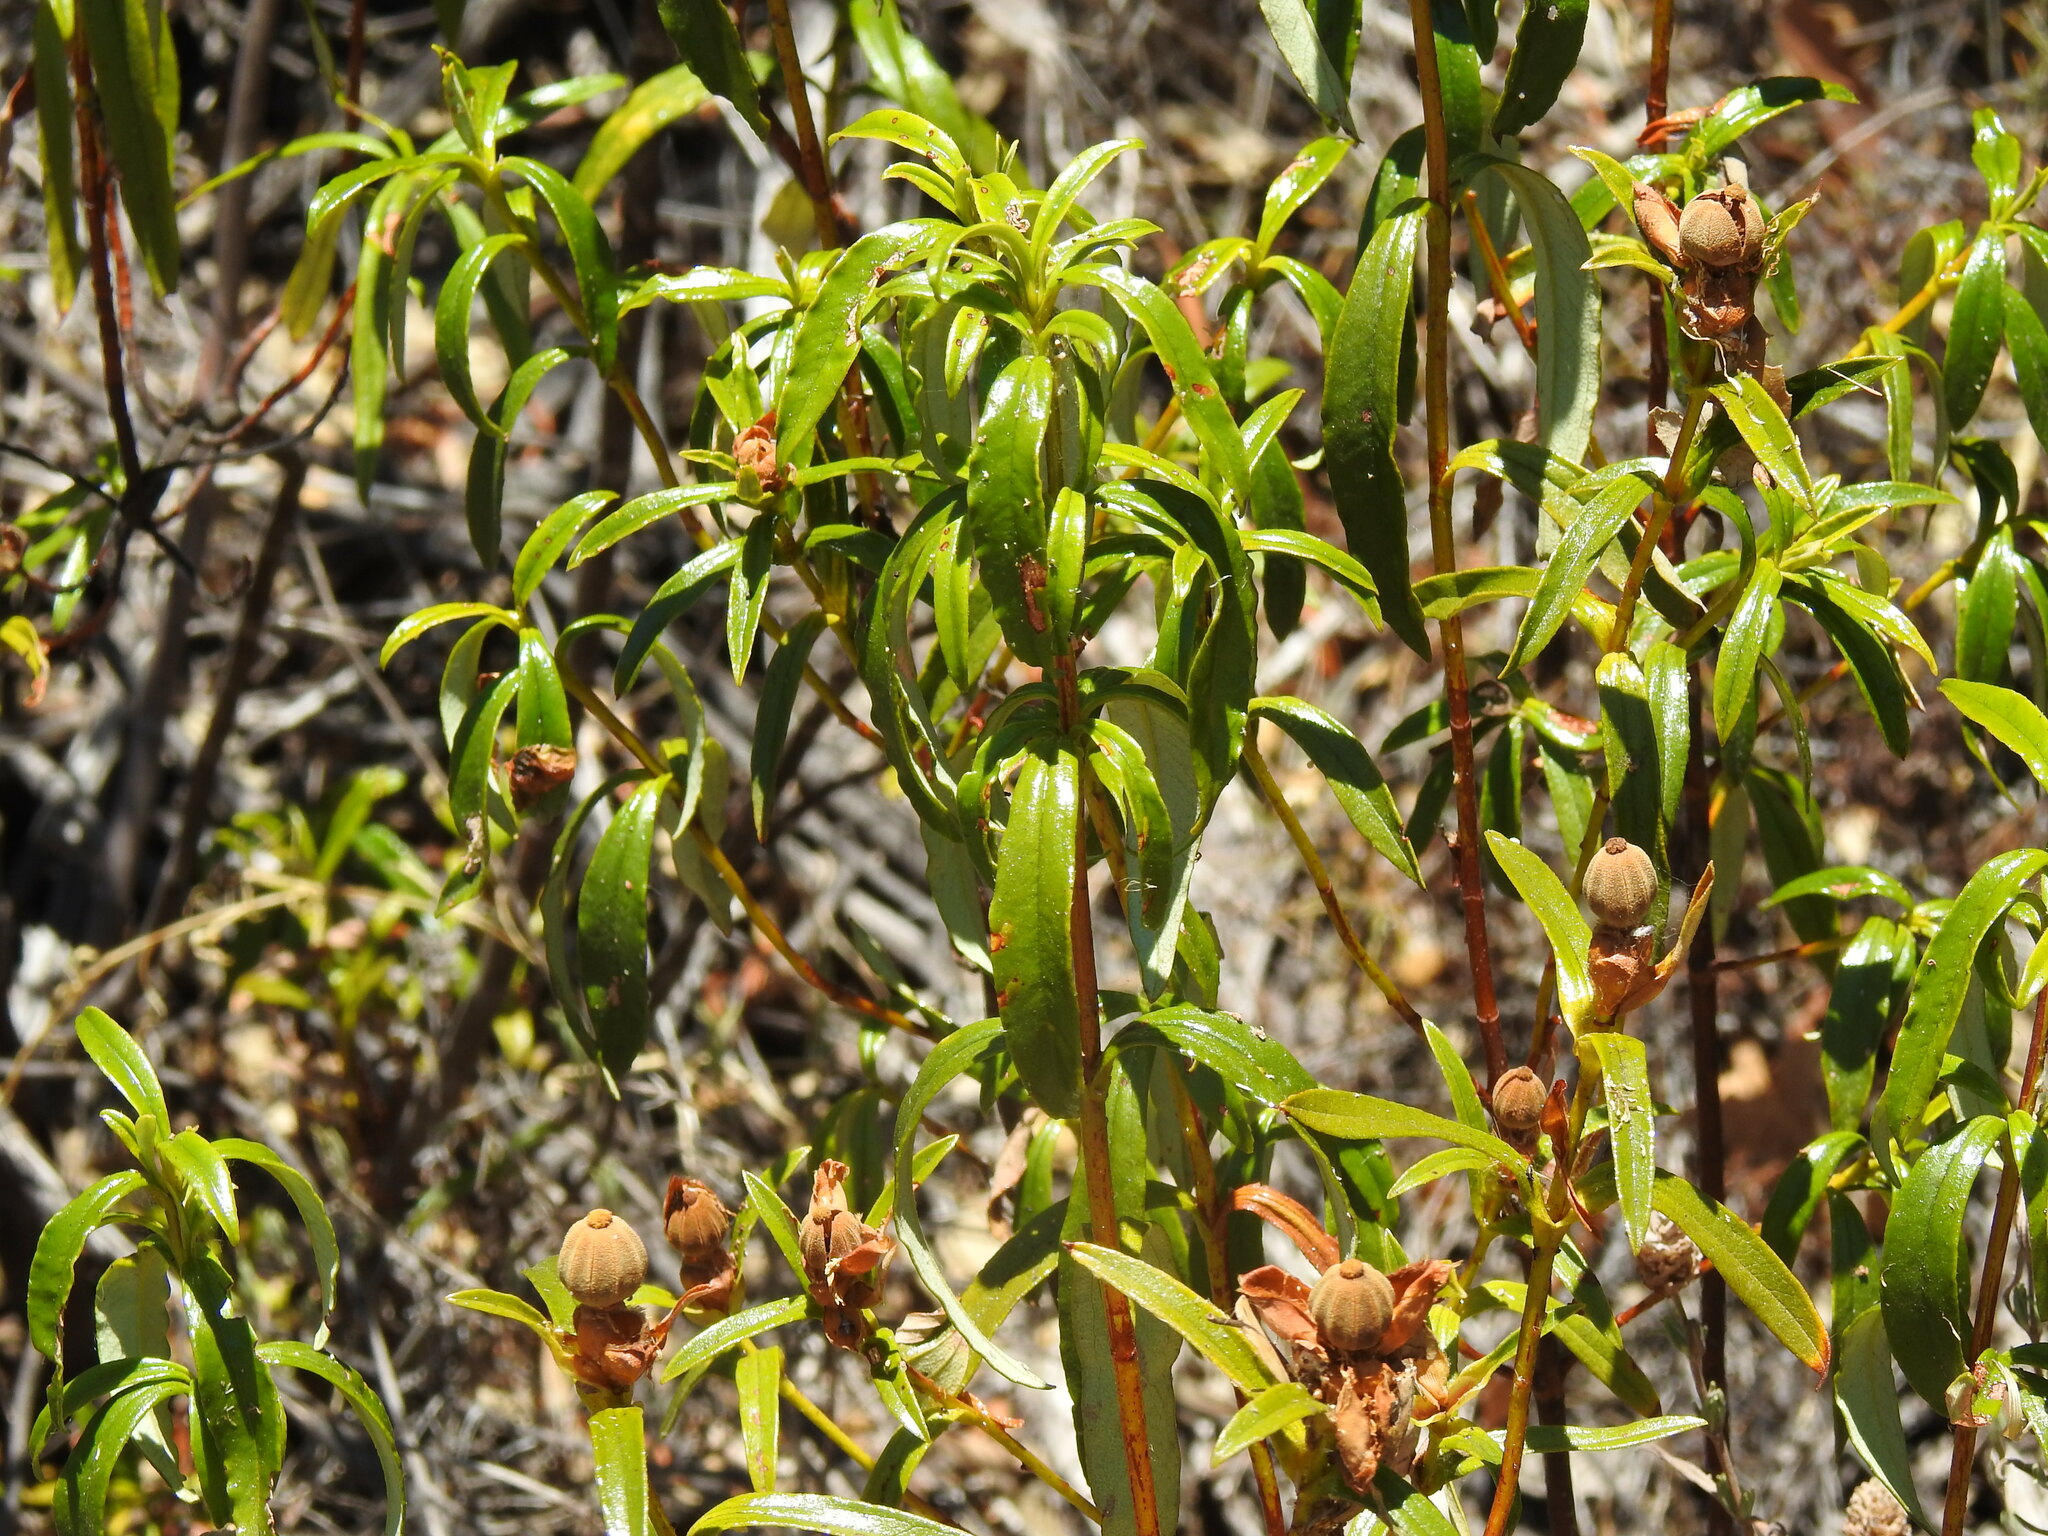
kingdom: Plantae
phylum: Tracheophyta
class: Magnoliopsida
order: Malvales
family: Cistaceae
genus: Cistus
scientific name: Cistus ladanifer
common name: Common gum cistus
